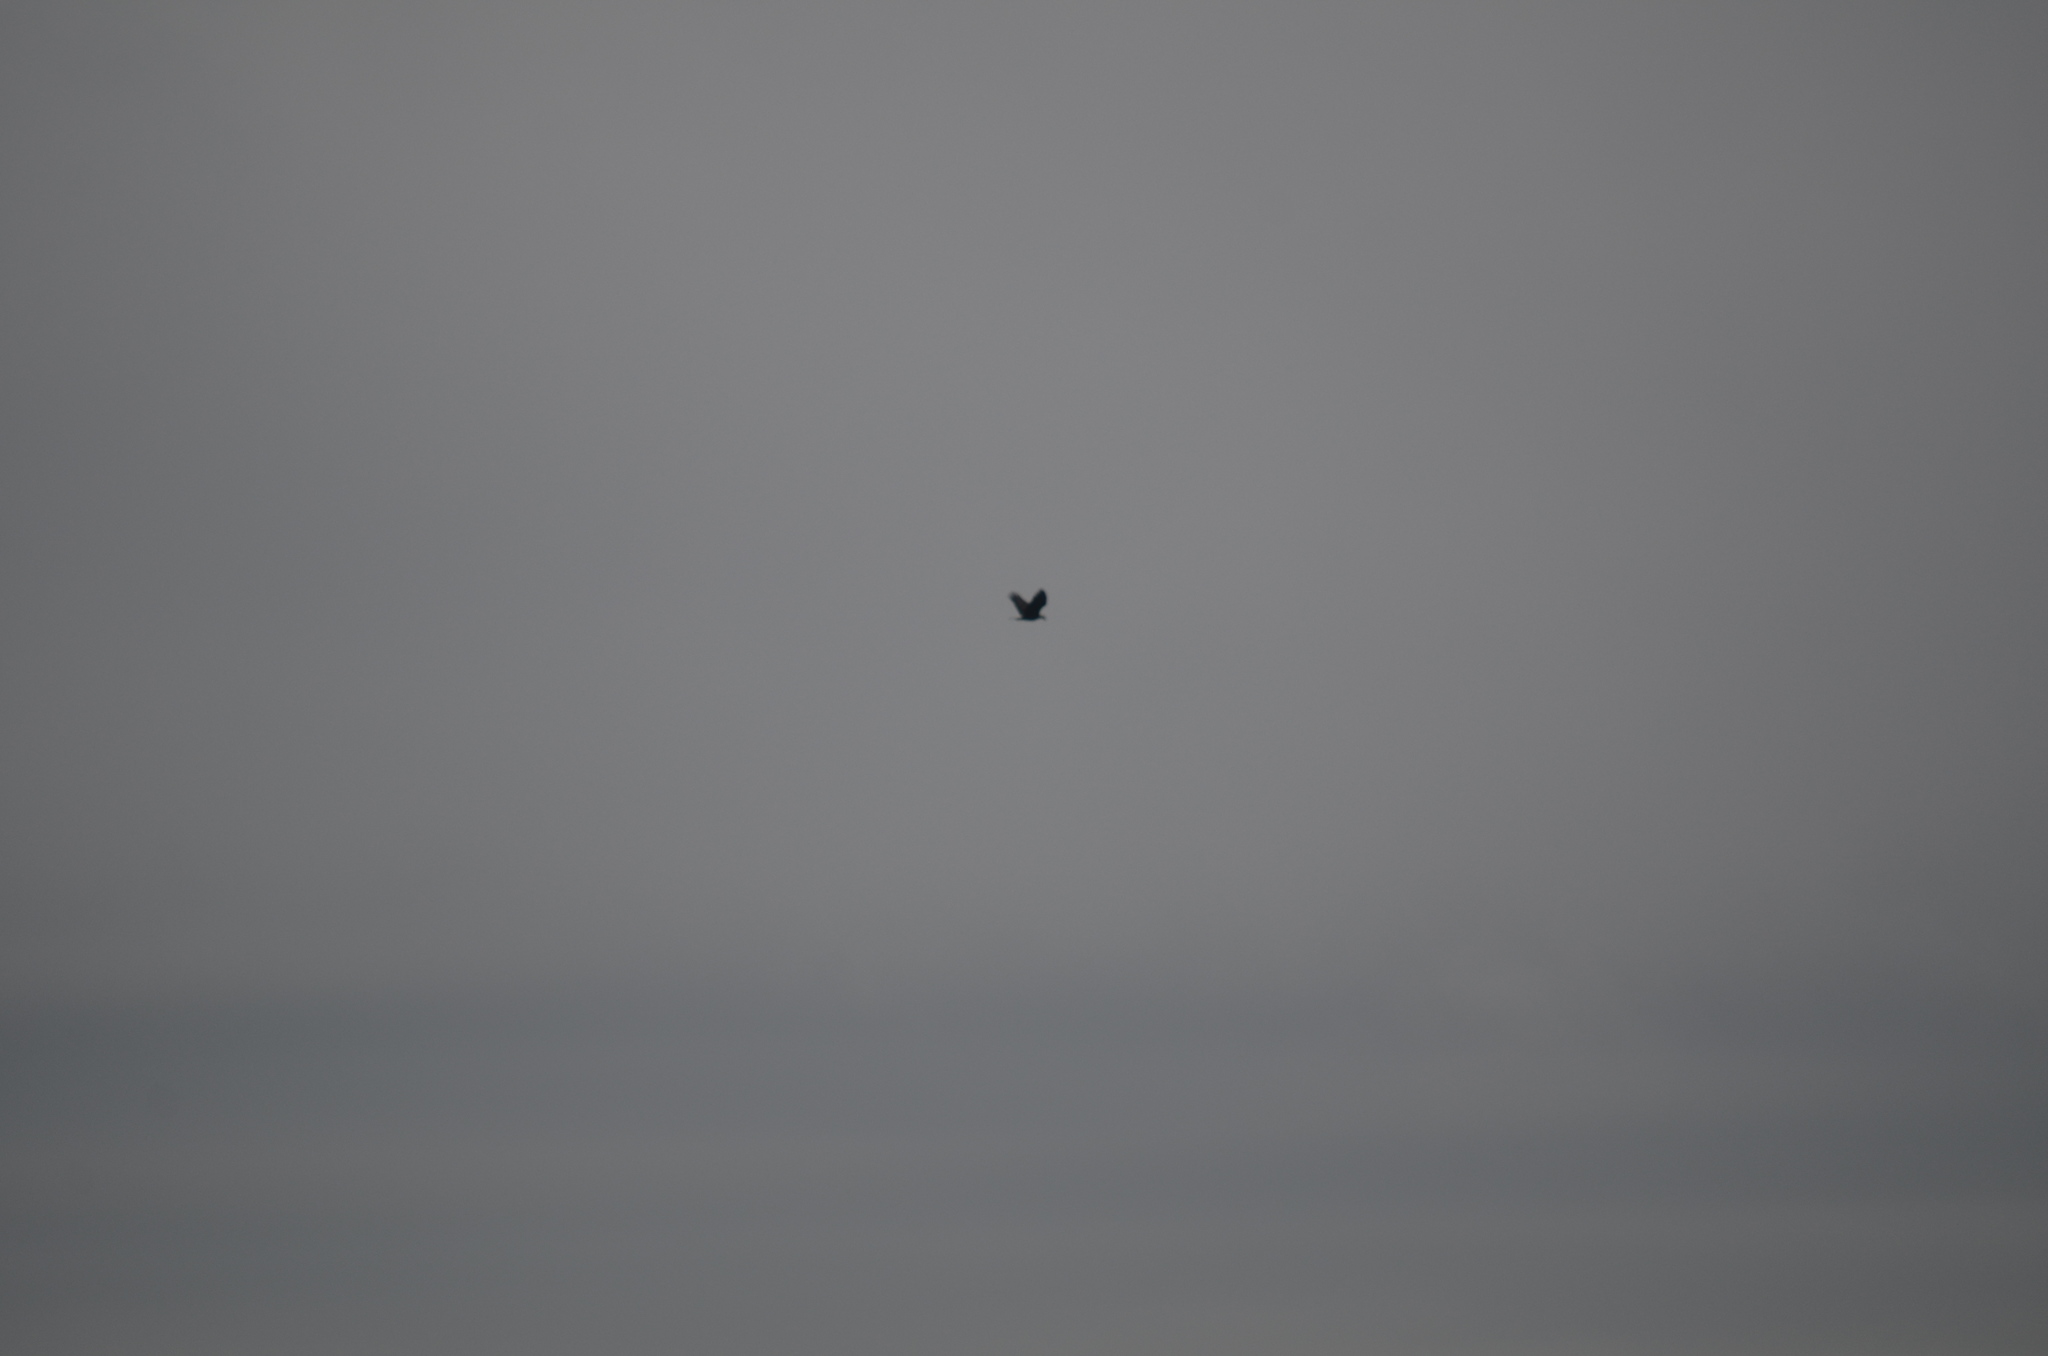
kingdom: Animalia
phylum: Chordata
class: Aves
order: Accipitriformes
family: Accipitridae
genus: Haliaeetus
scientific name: Haliaeetus leucocephalus
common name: Bald eagle
